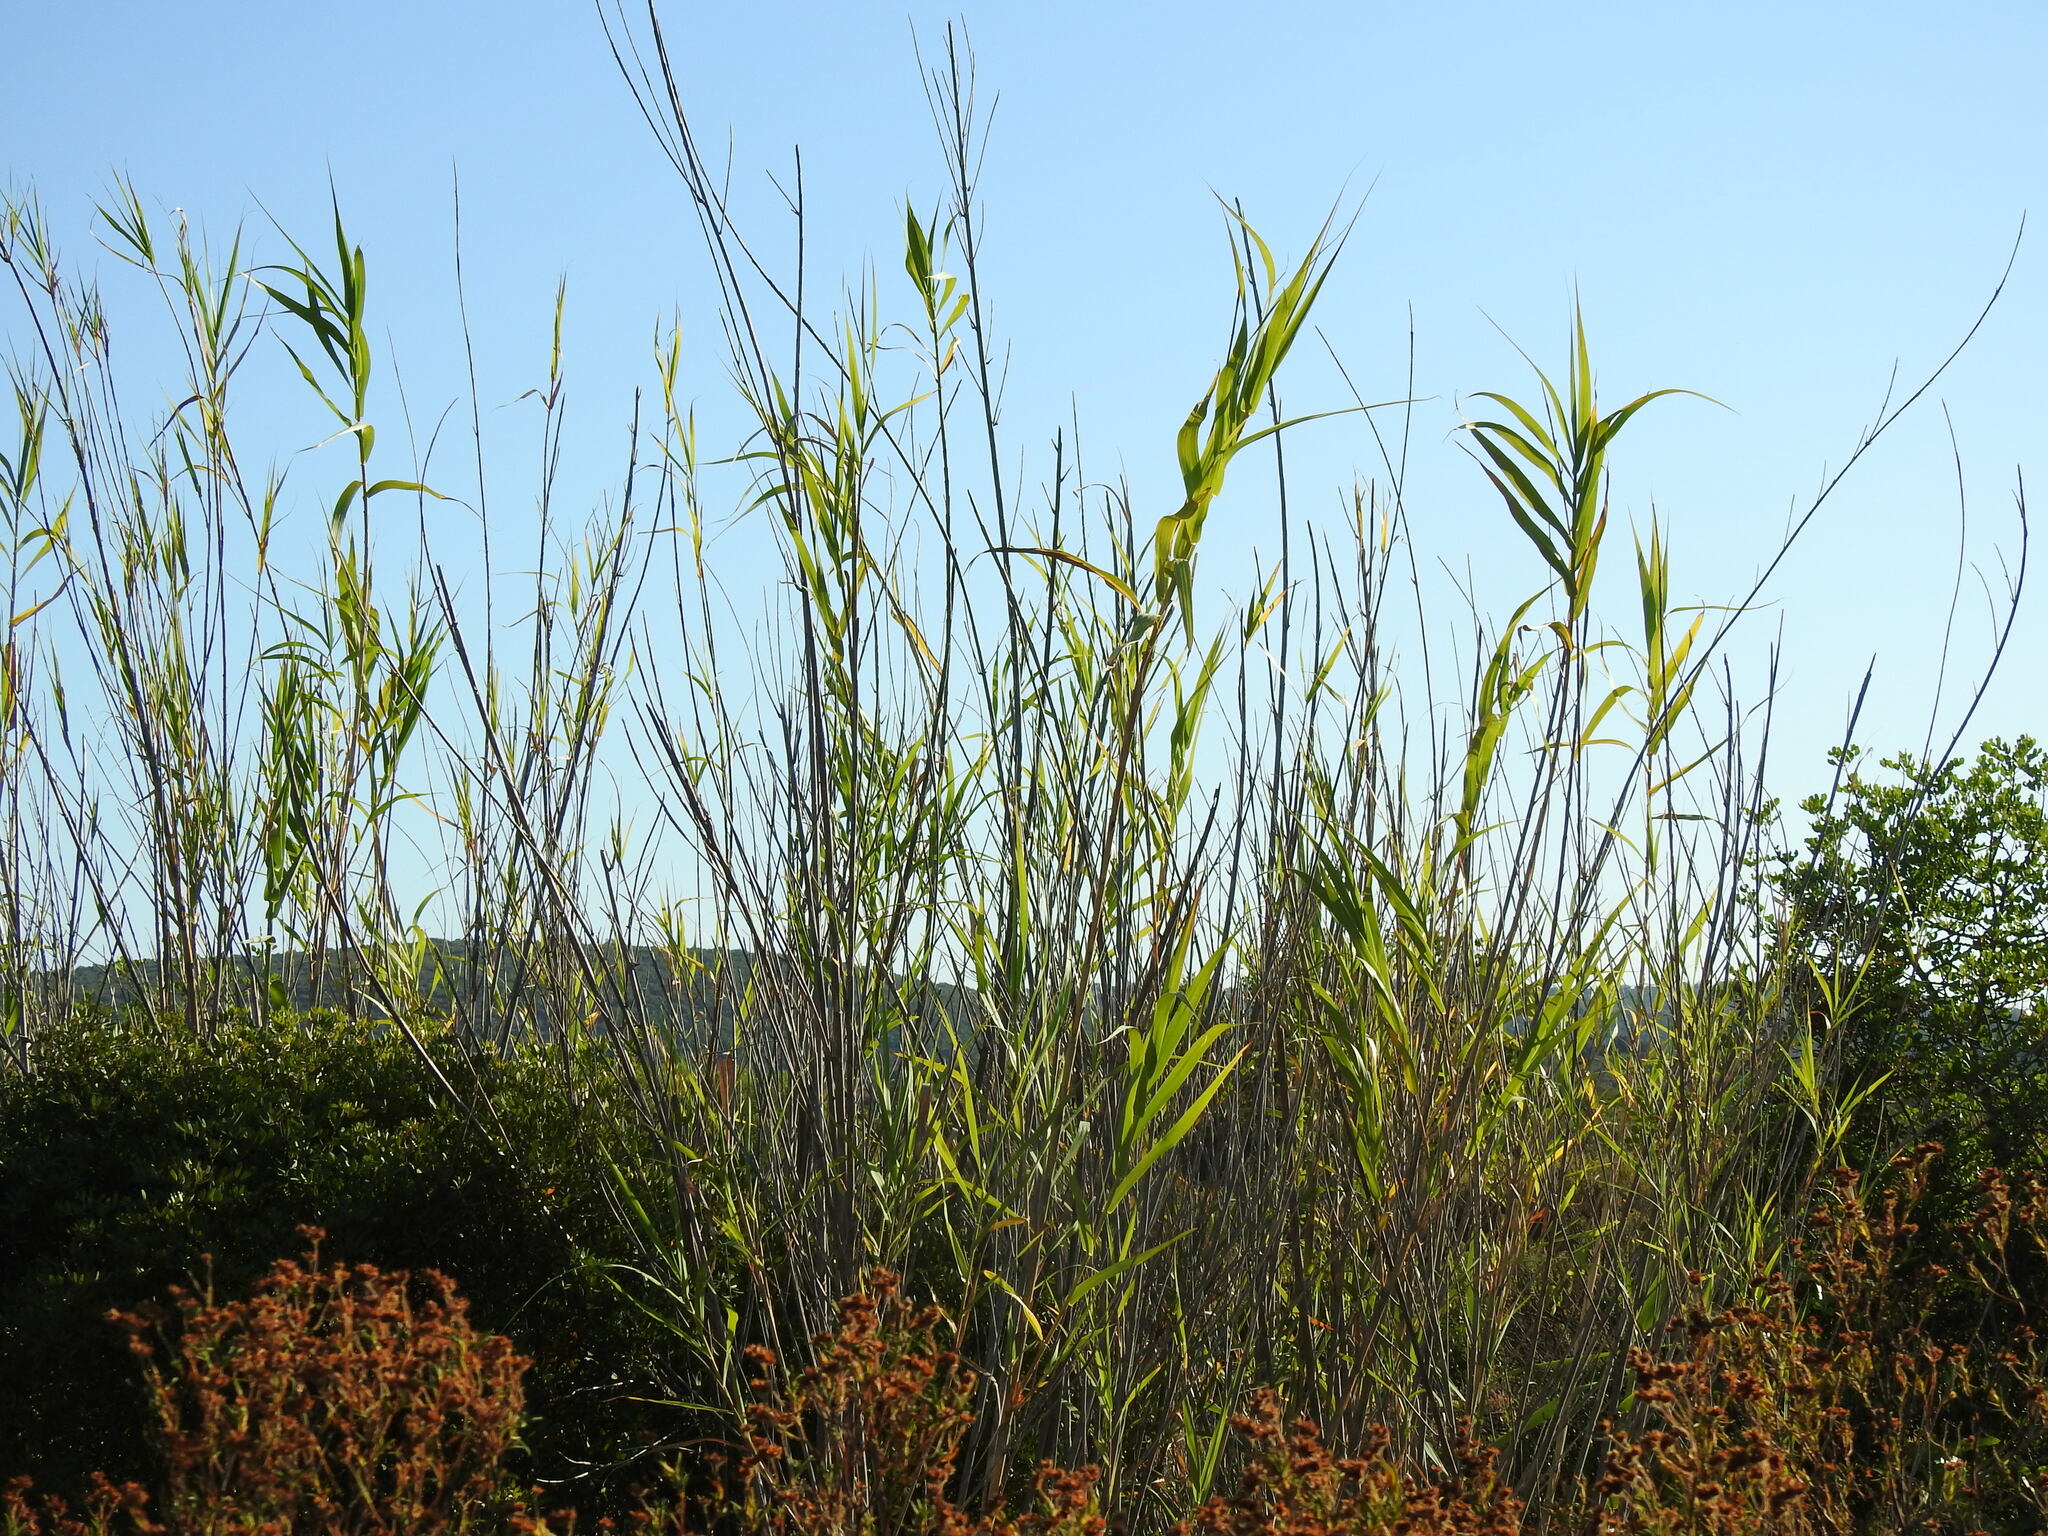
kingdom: Plantae
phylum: Tracheophyta
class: Liliopsida
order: Poales
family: Poaceae
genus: Arundo
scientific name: Arundo donax
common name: Giant reed
